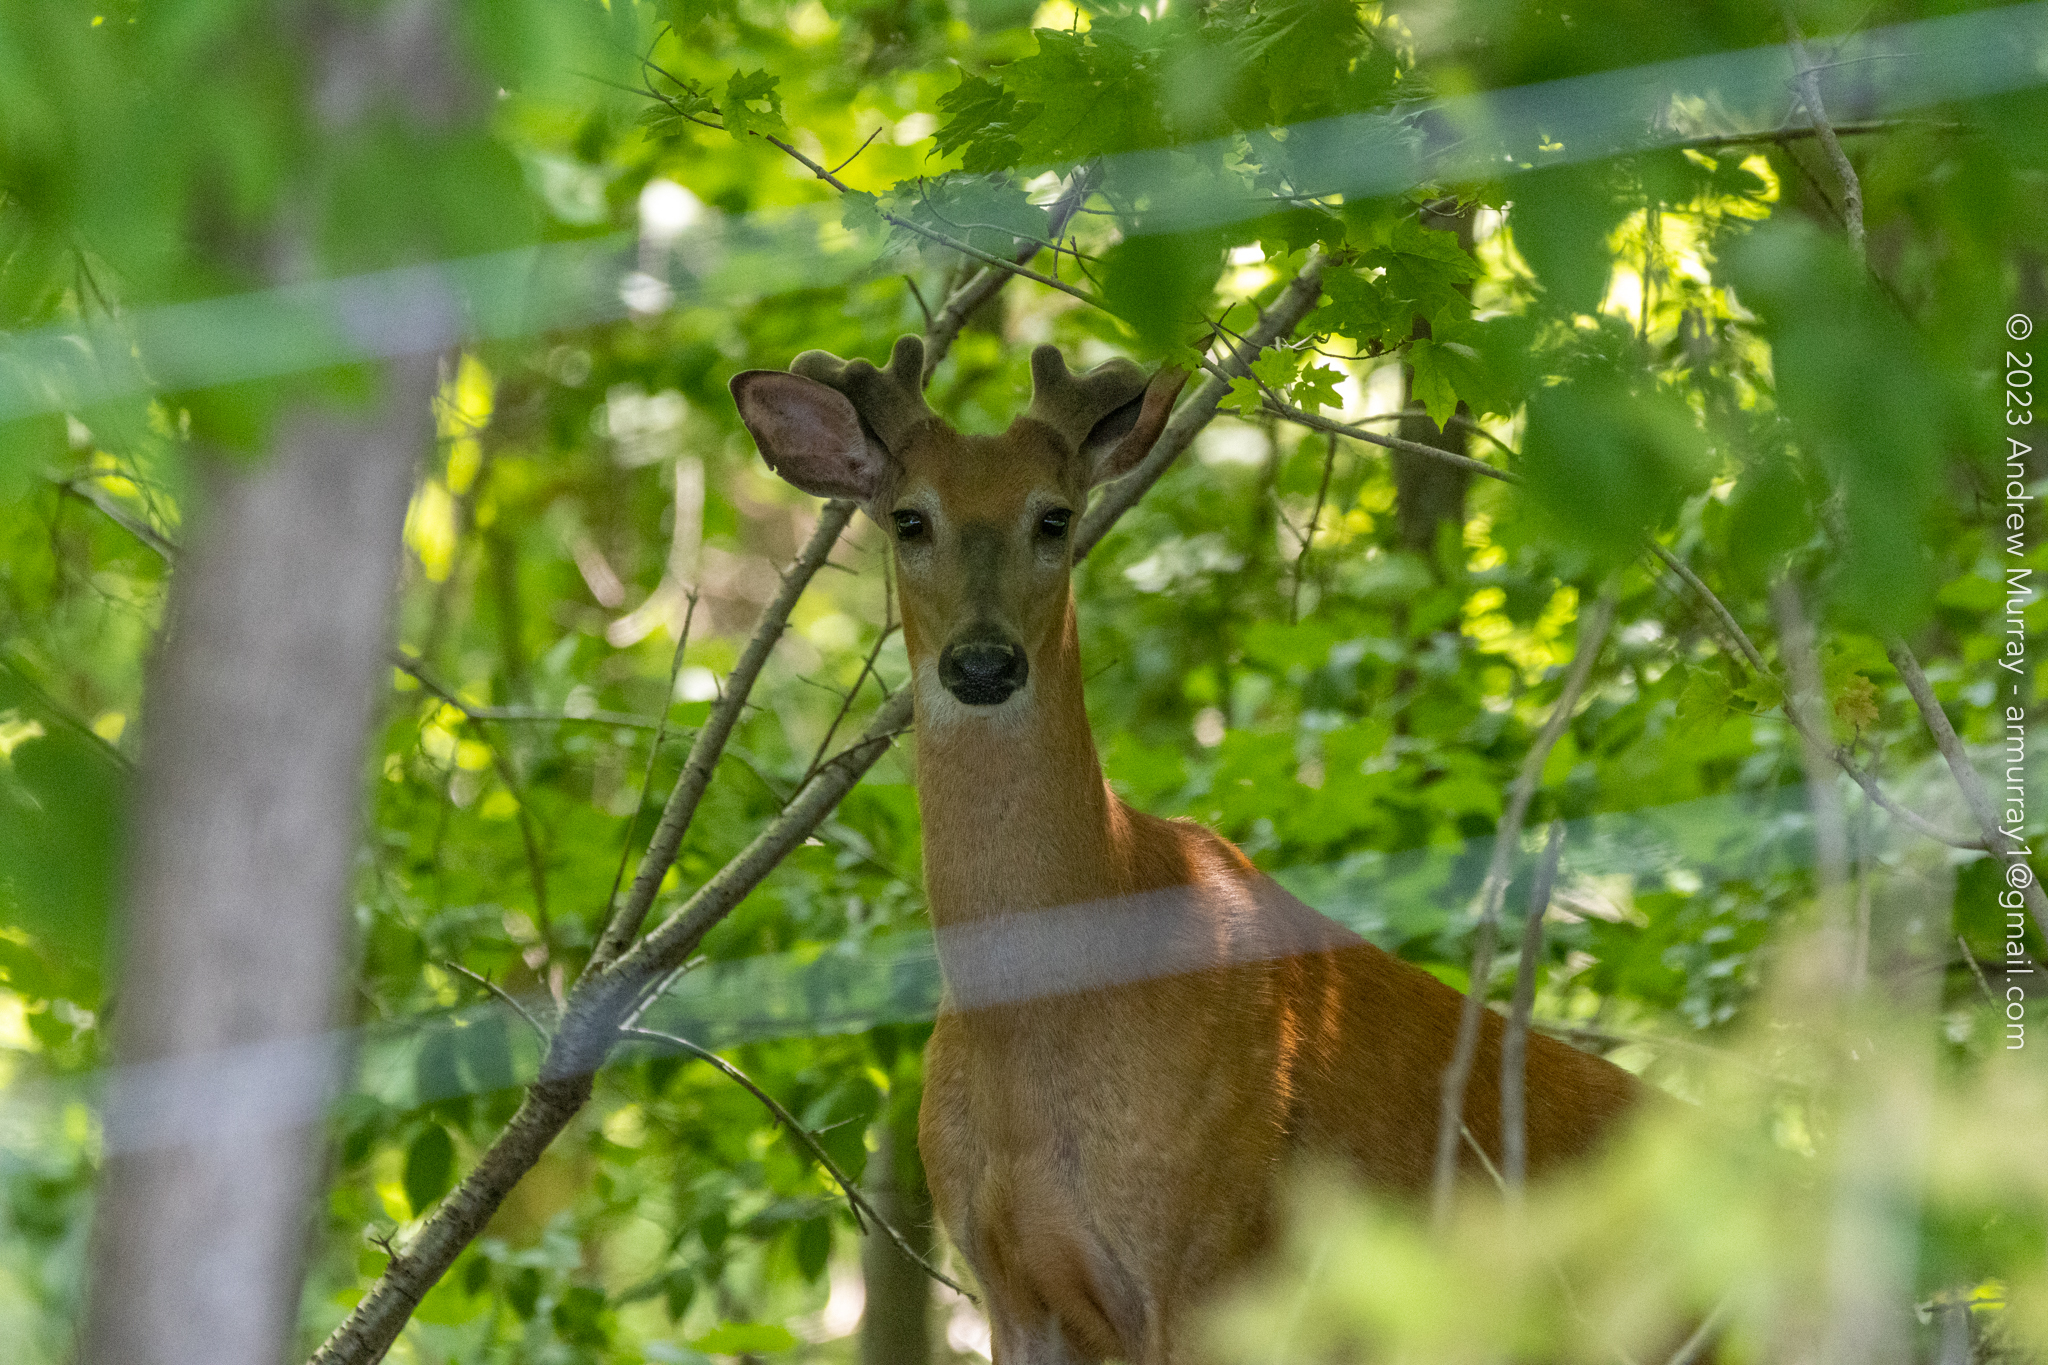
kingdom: Animalia
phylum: Chordata
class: Mammalia
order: Artiodactyla
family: Cervidae
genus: Odocoileus
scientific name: Odocoileus virginianus
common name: White-tailed deer
